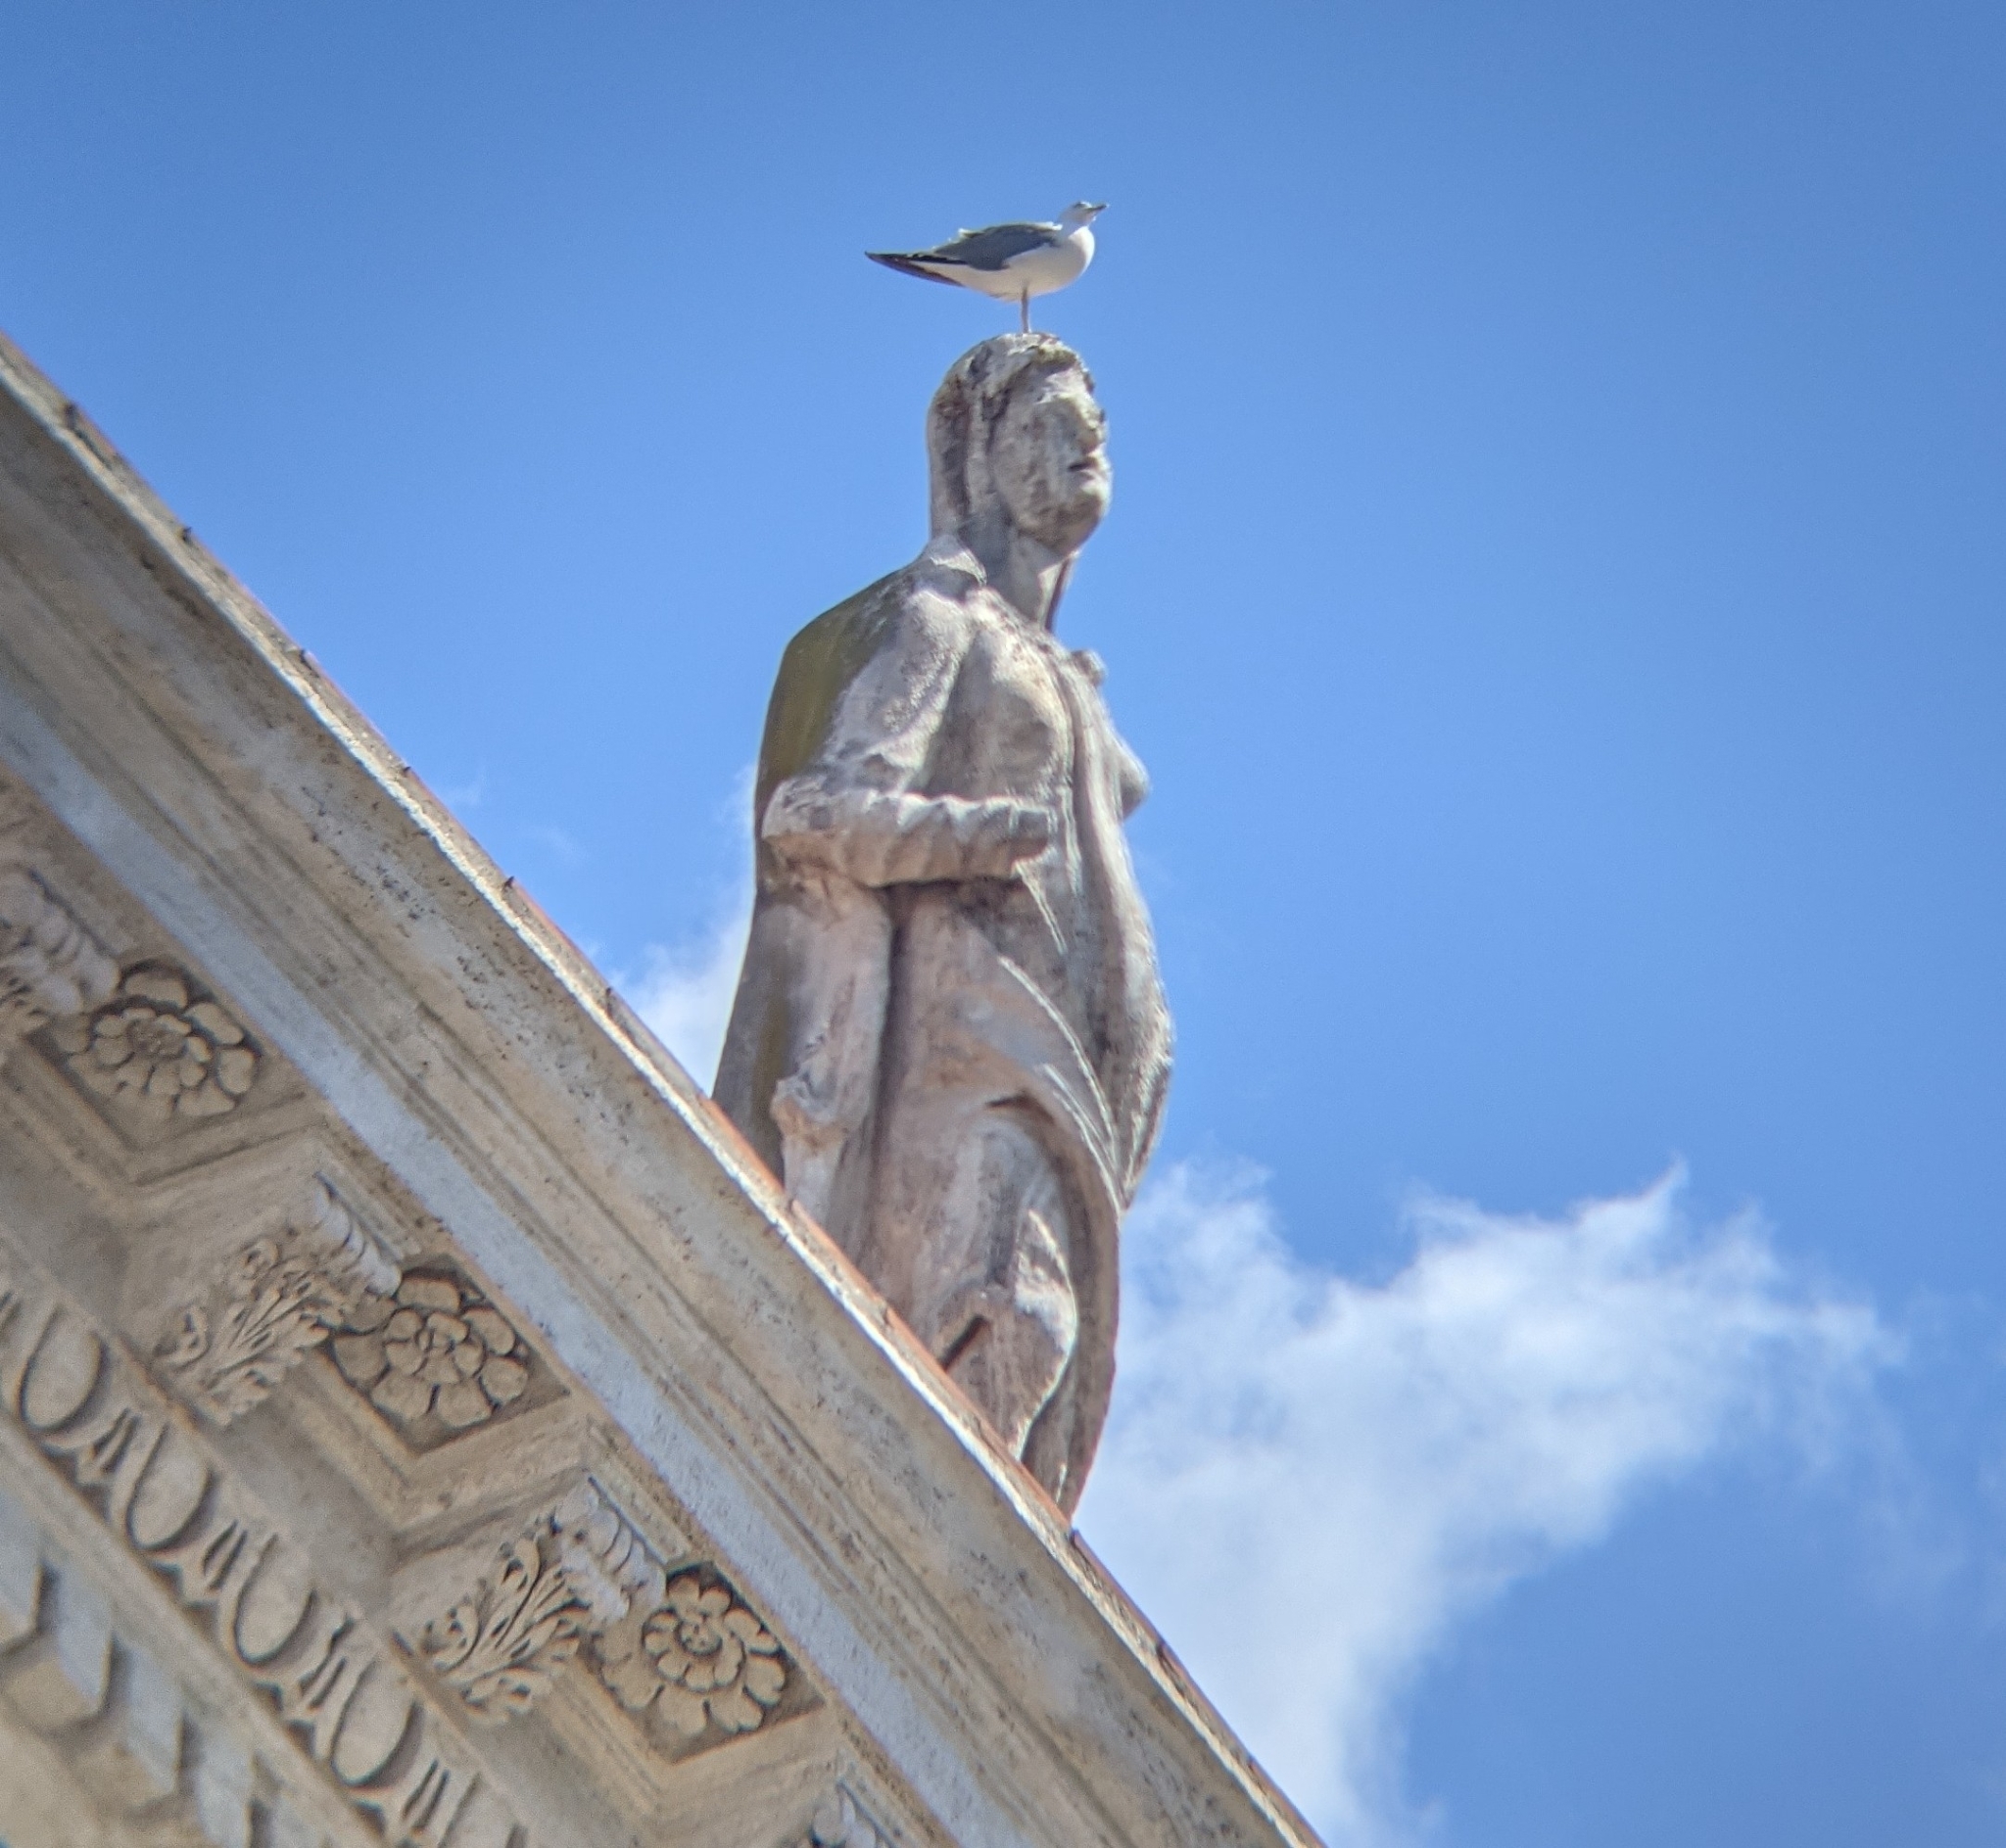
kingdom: Animalia
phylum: Chordata
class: Aves
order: Charadriiformes
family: Laridae
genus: Larus
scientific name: Larus michahellis
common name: Yellow-legged gull
